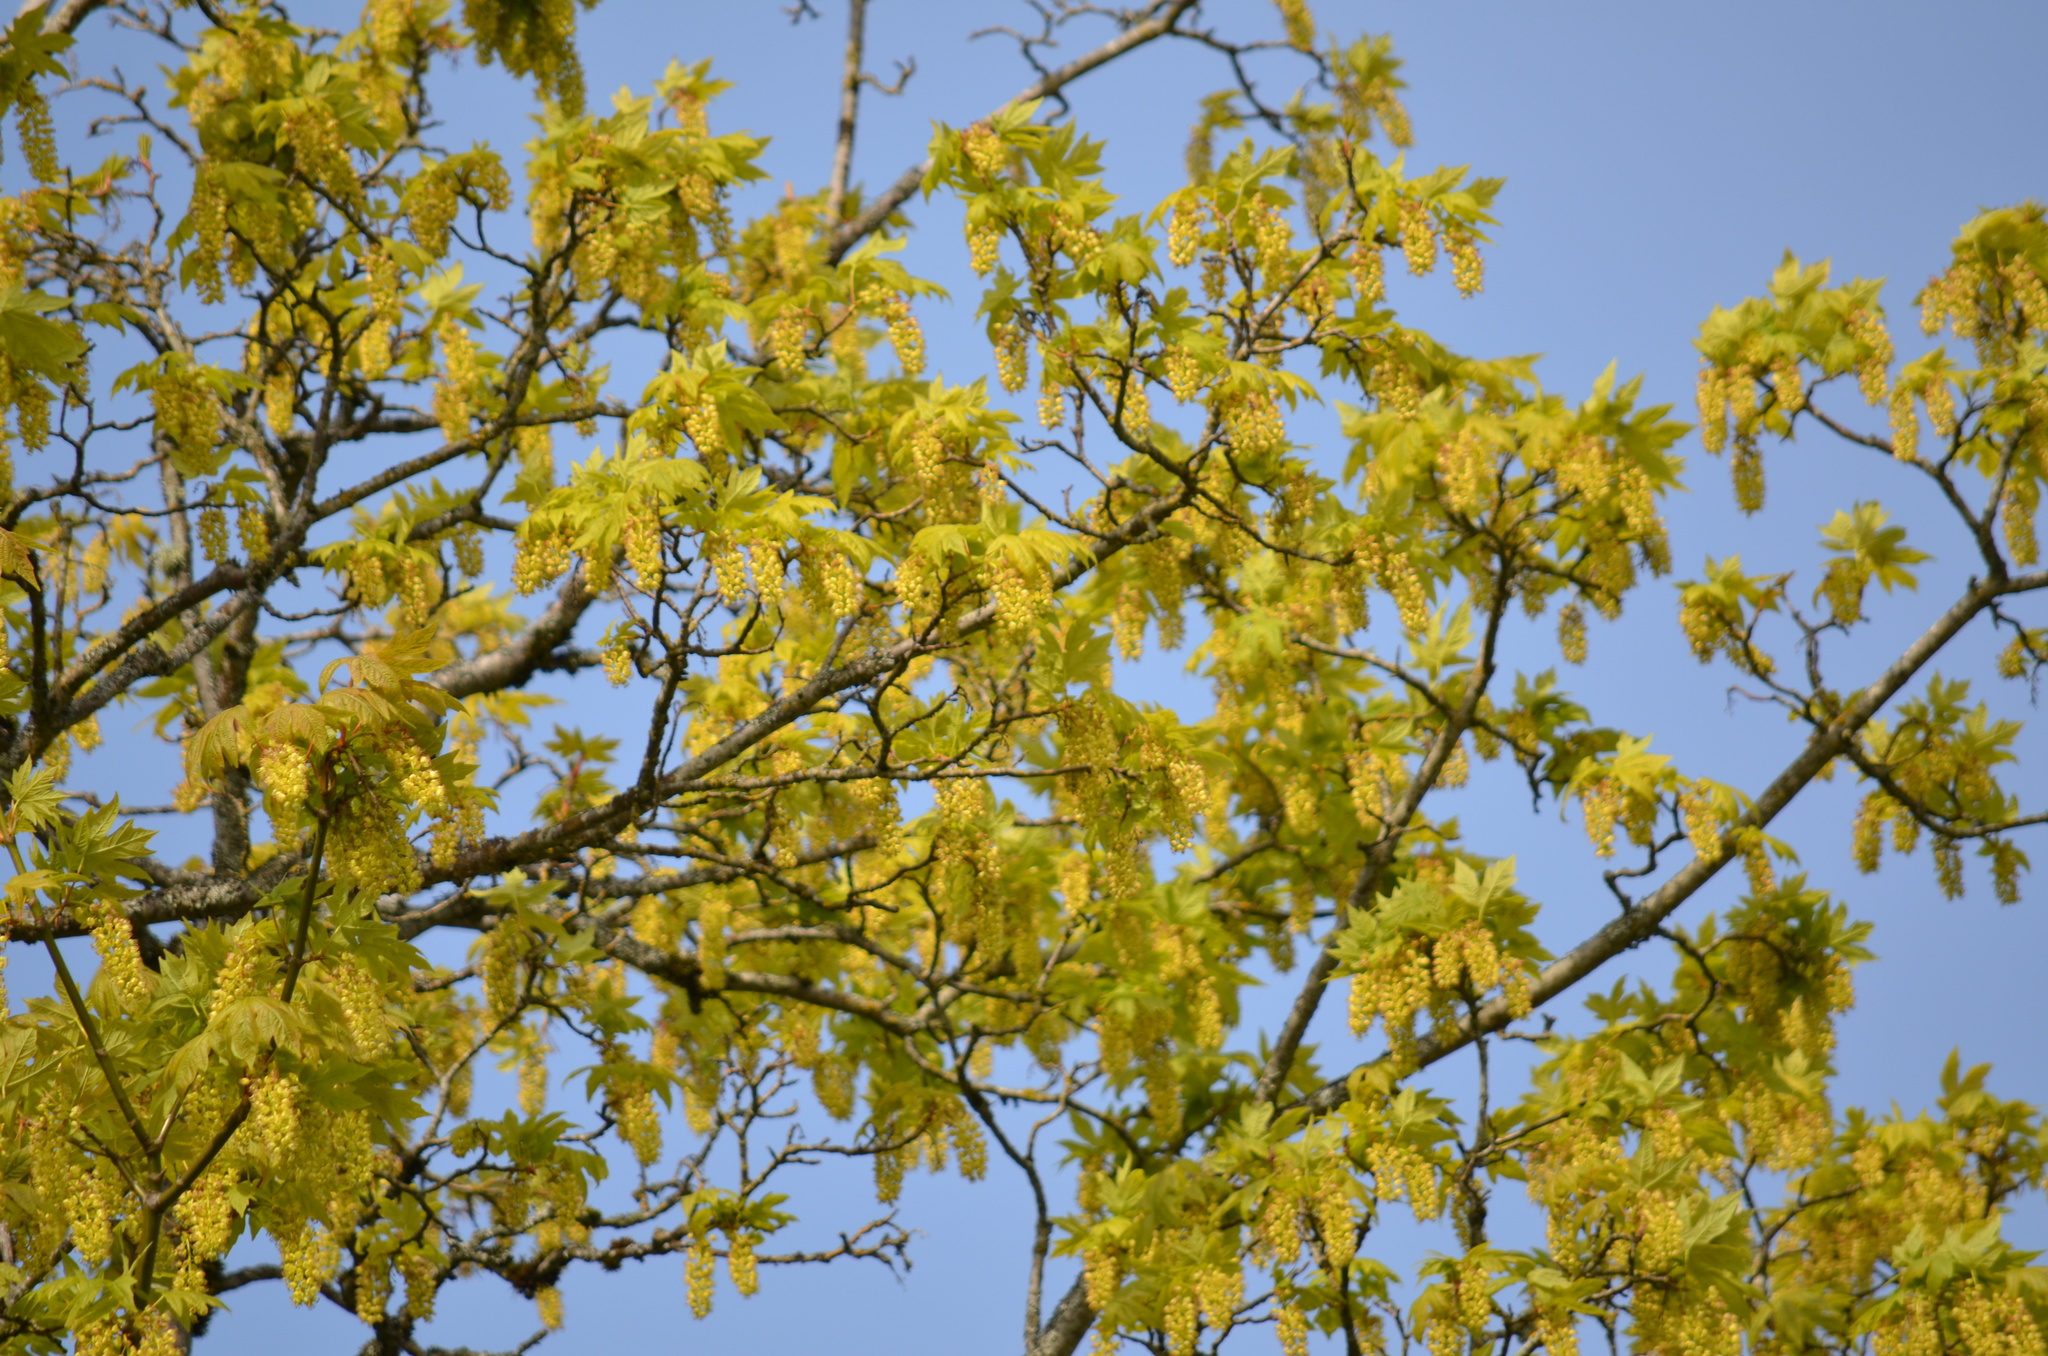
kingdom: Plantae
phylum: Tracheophyta
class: Magnoliopsida
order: Sapindales
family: Sapindaceae
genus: Acer
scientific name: Acer macrophyllum
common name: Oregon maple
